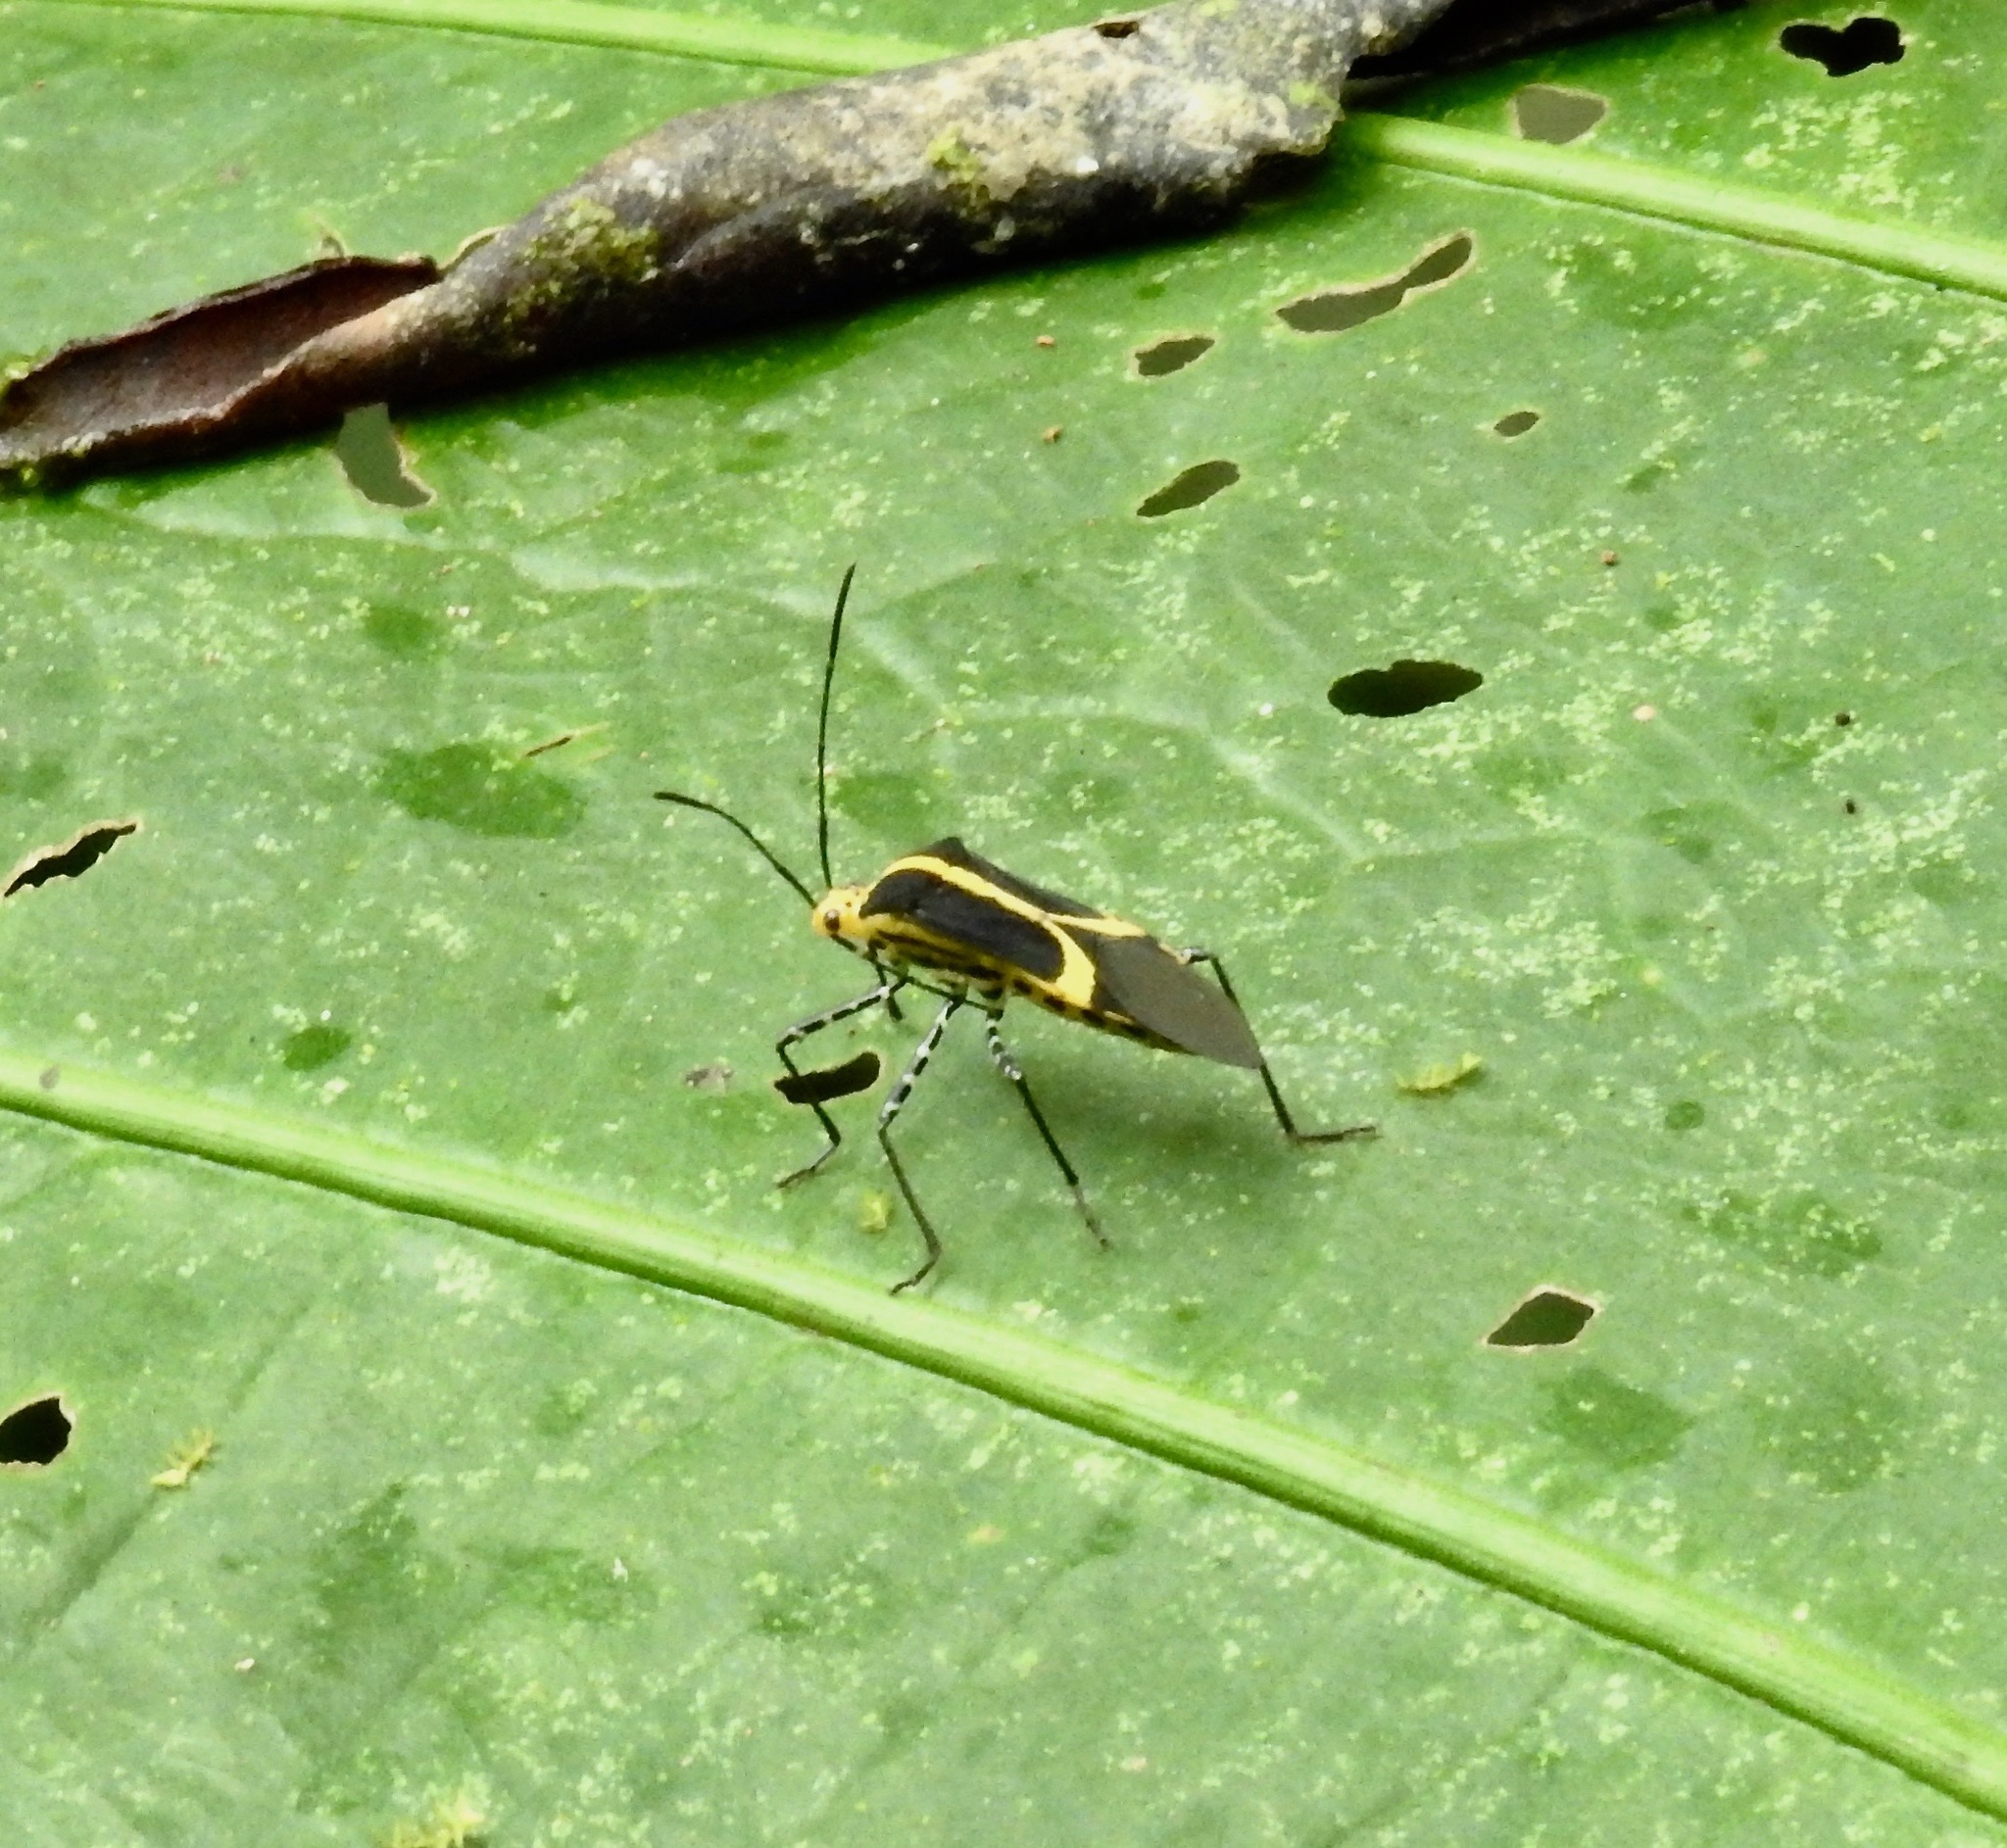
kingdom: Animalia
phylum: Arthropoda
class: Insecta
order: Hemiptera
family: Coreidae
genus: Hypselonotus
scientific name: Hypselonotus linea
